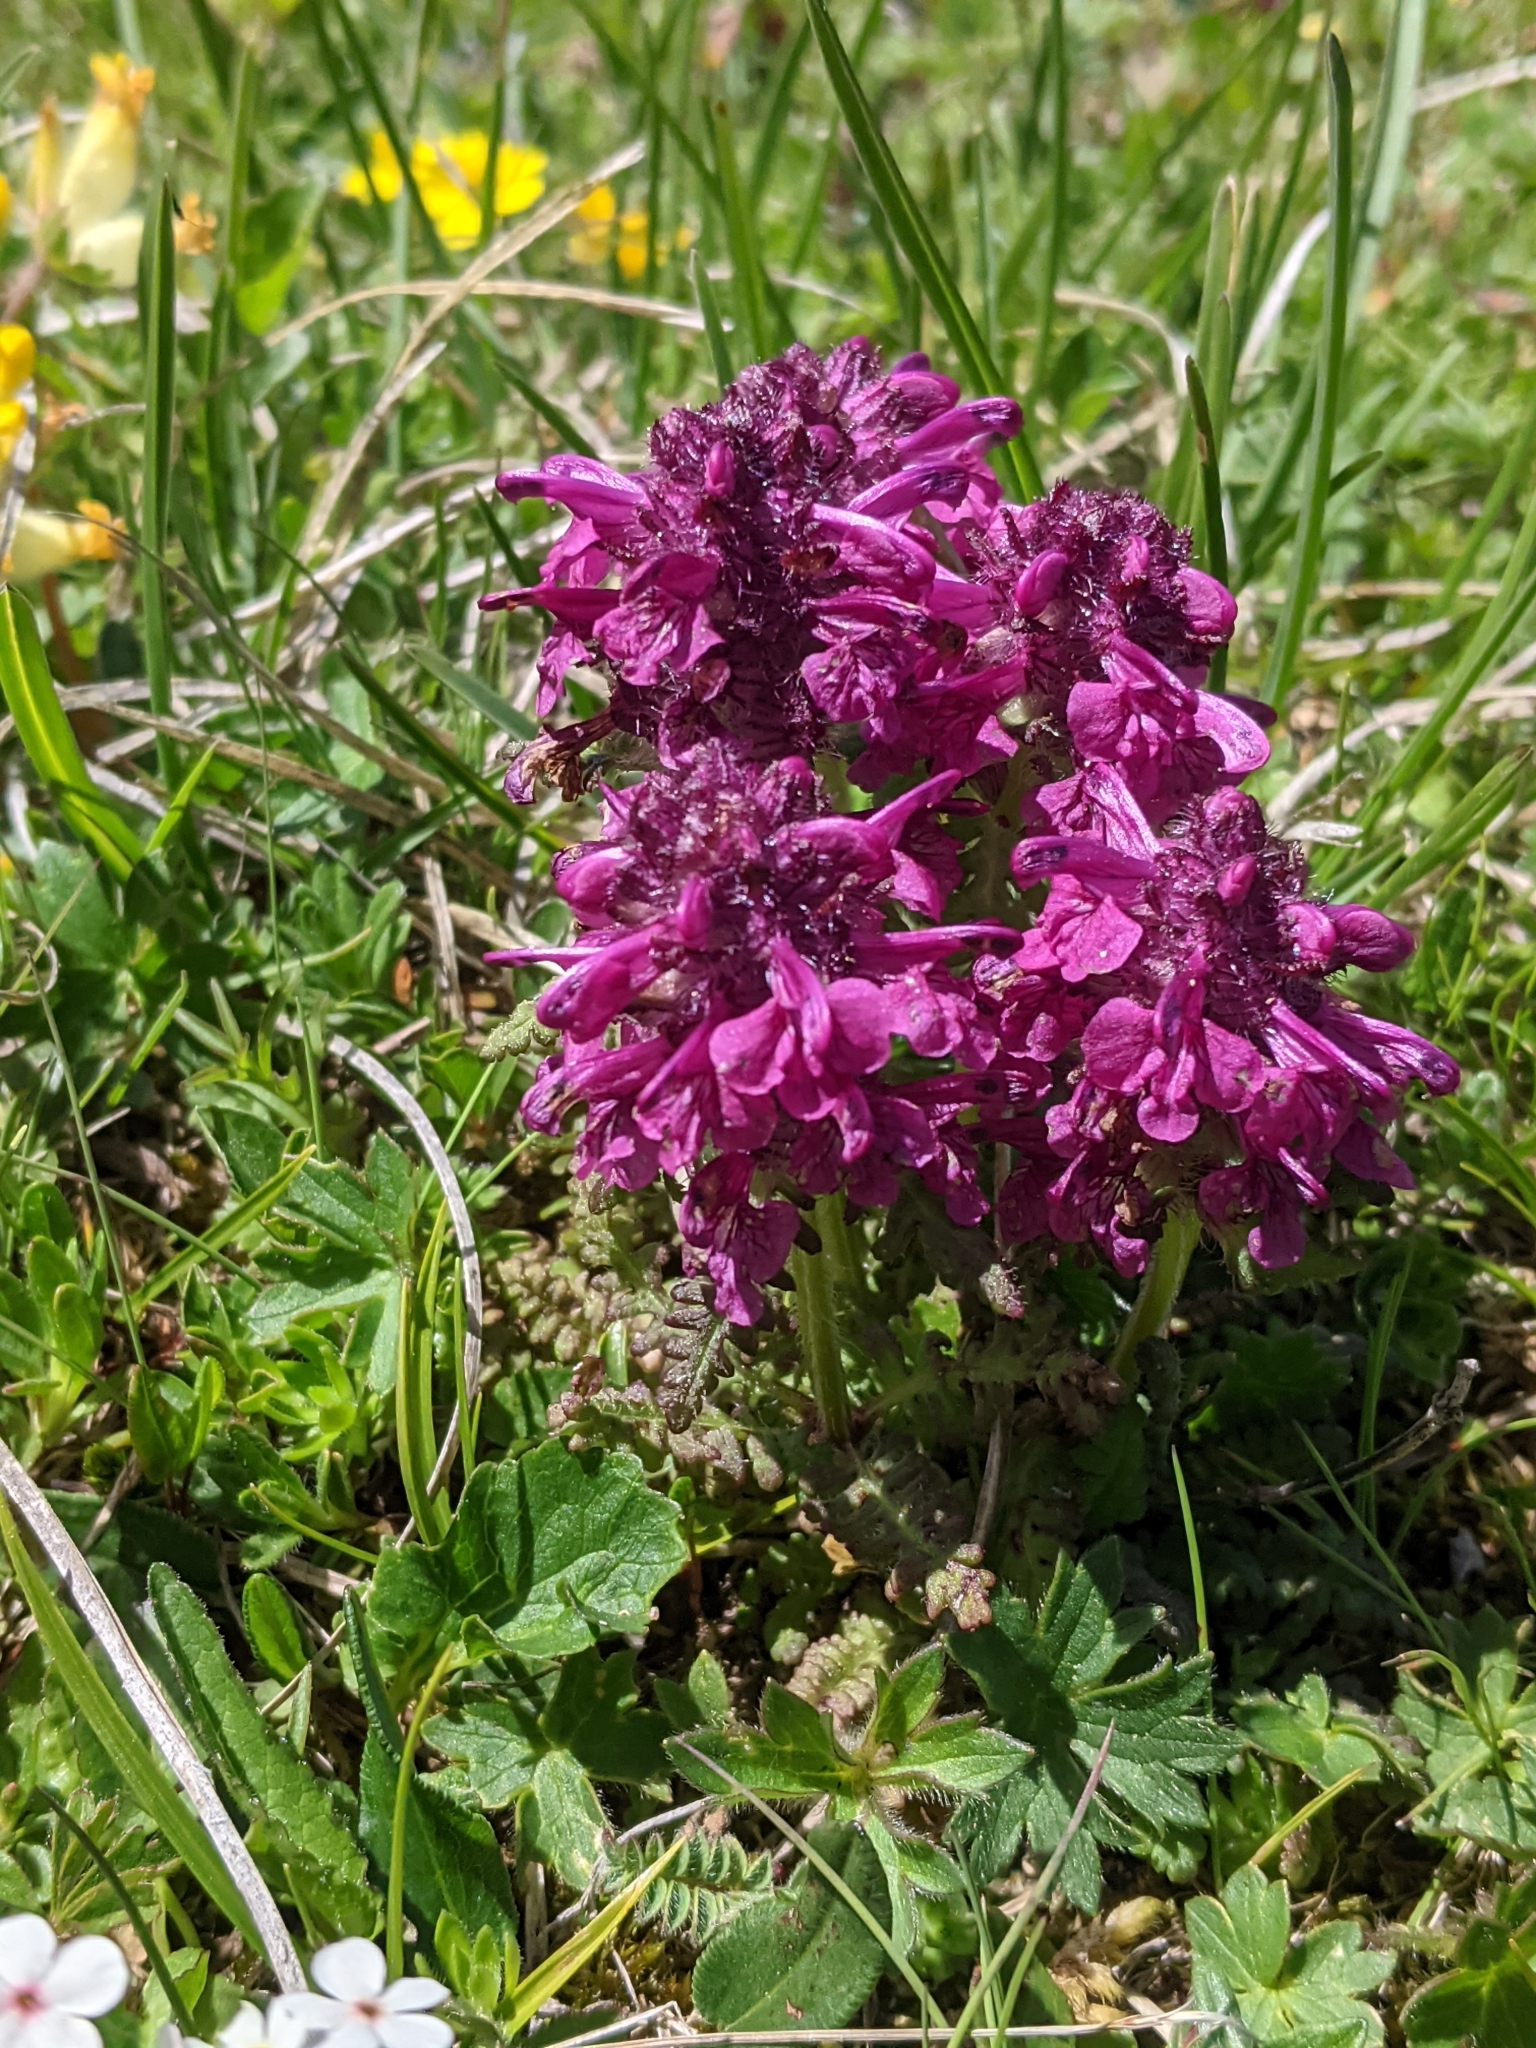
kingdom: Plantae
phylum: Tracheophyta
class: Magnoliopsida
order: Lamiales
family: Orobanchaceae
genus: Pedicularis
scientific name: Pedicularis verticillata
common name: Whorled lousewort
